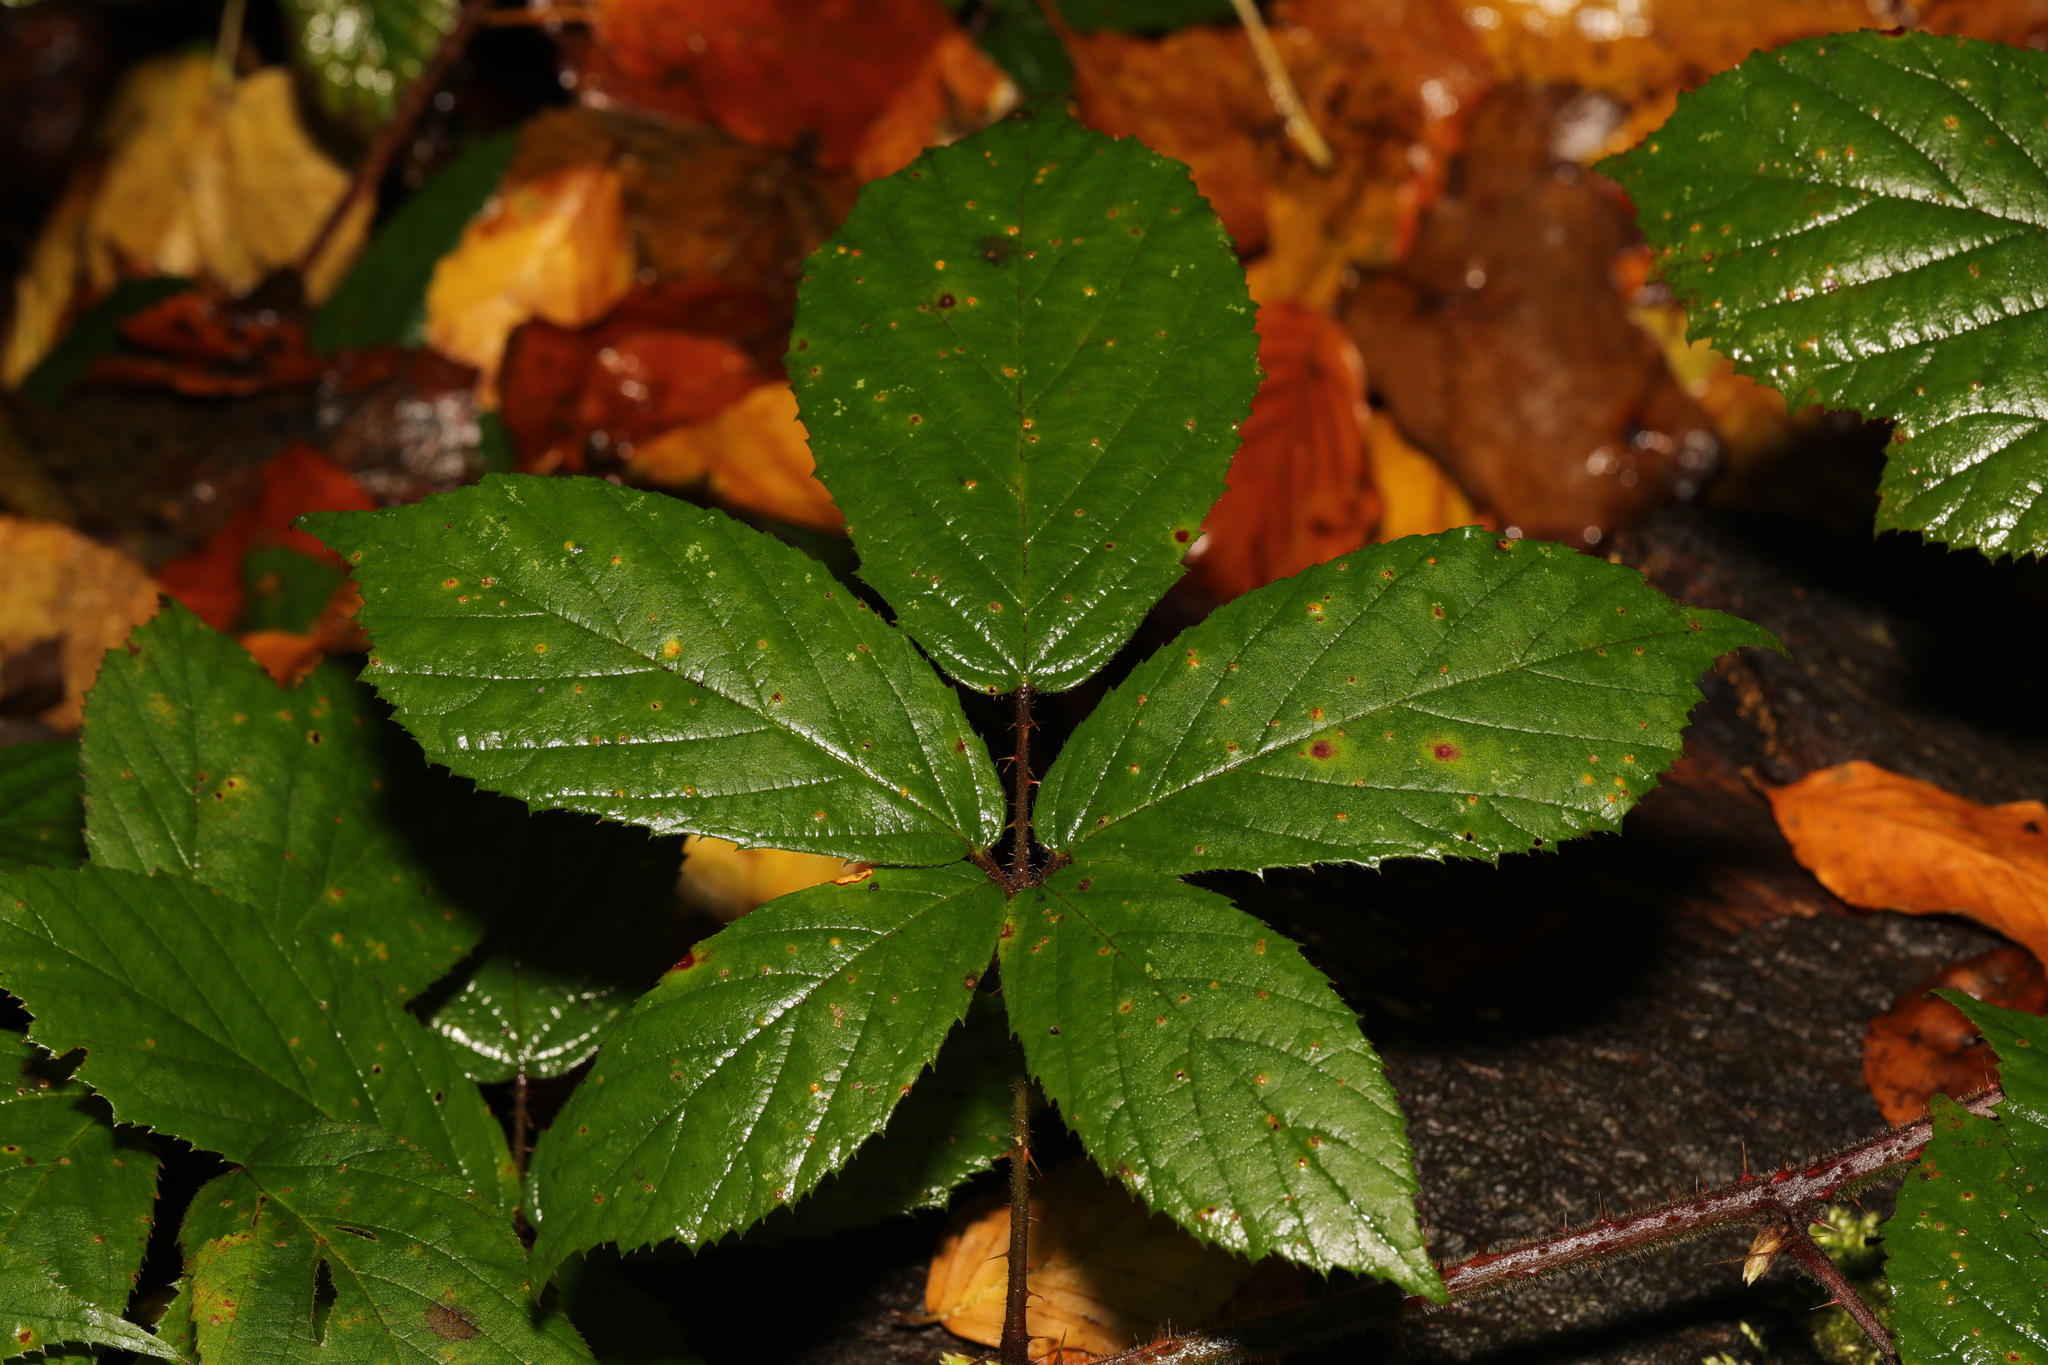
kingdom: Fungi
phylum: Basidiomycota
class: Pucciniomycetes
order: Pucciniales
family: Phragmidiaceae
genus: Phragmidium
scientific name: Phragmidium violaceum
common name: Violet bramble rust
